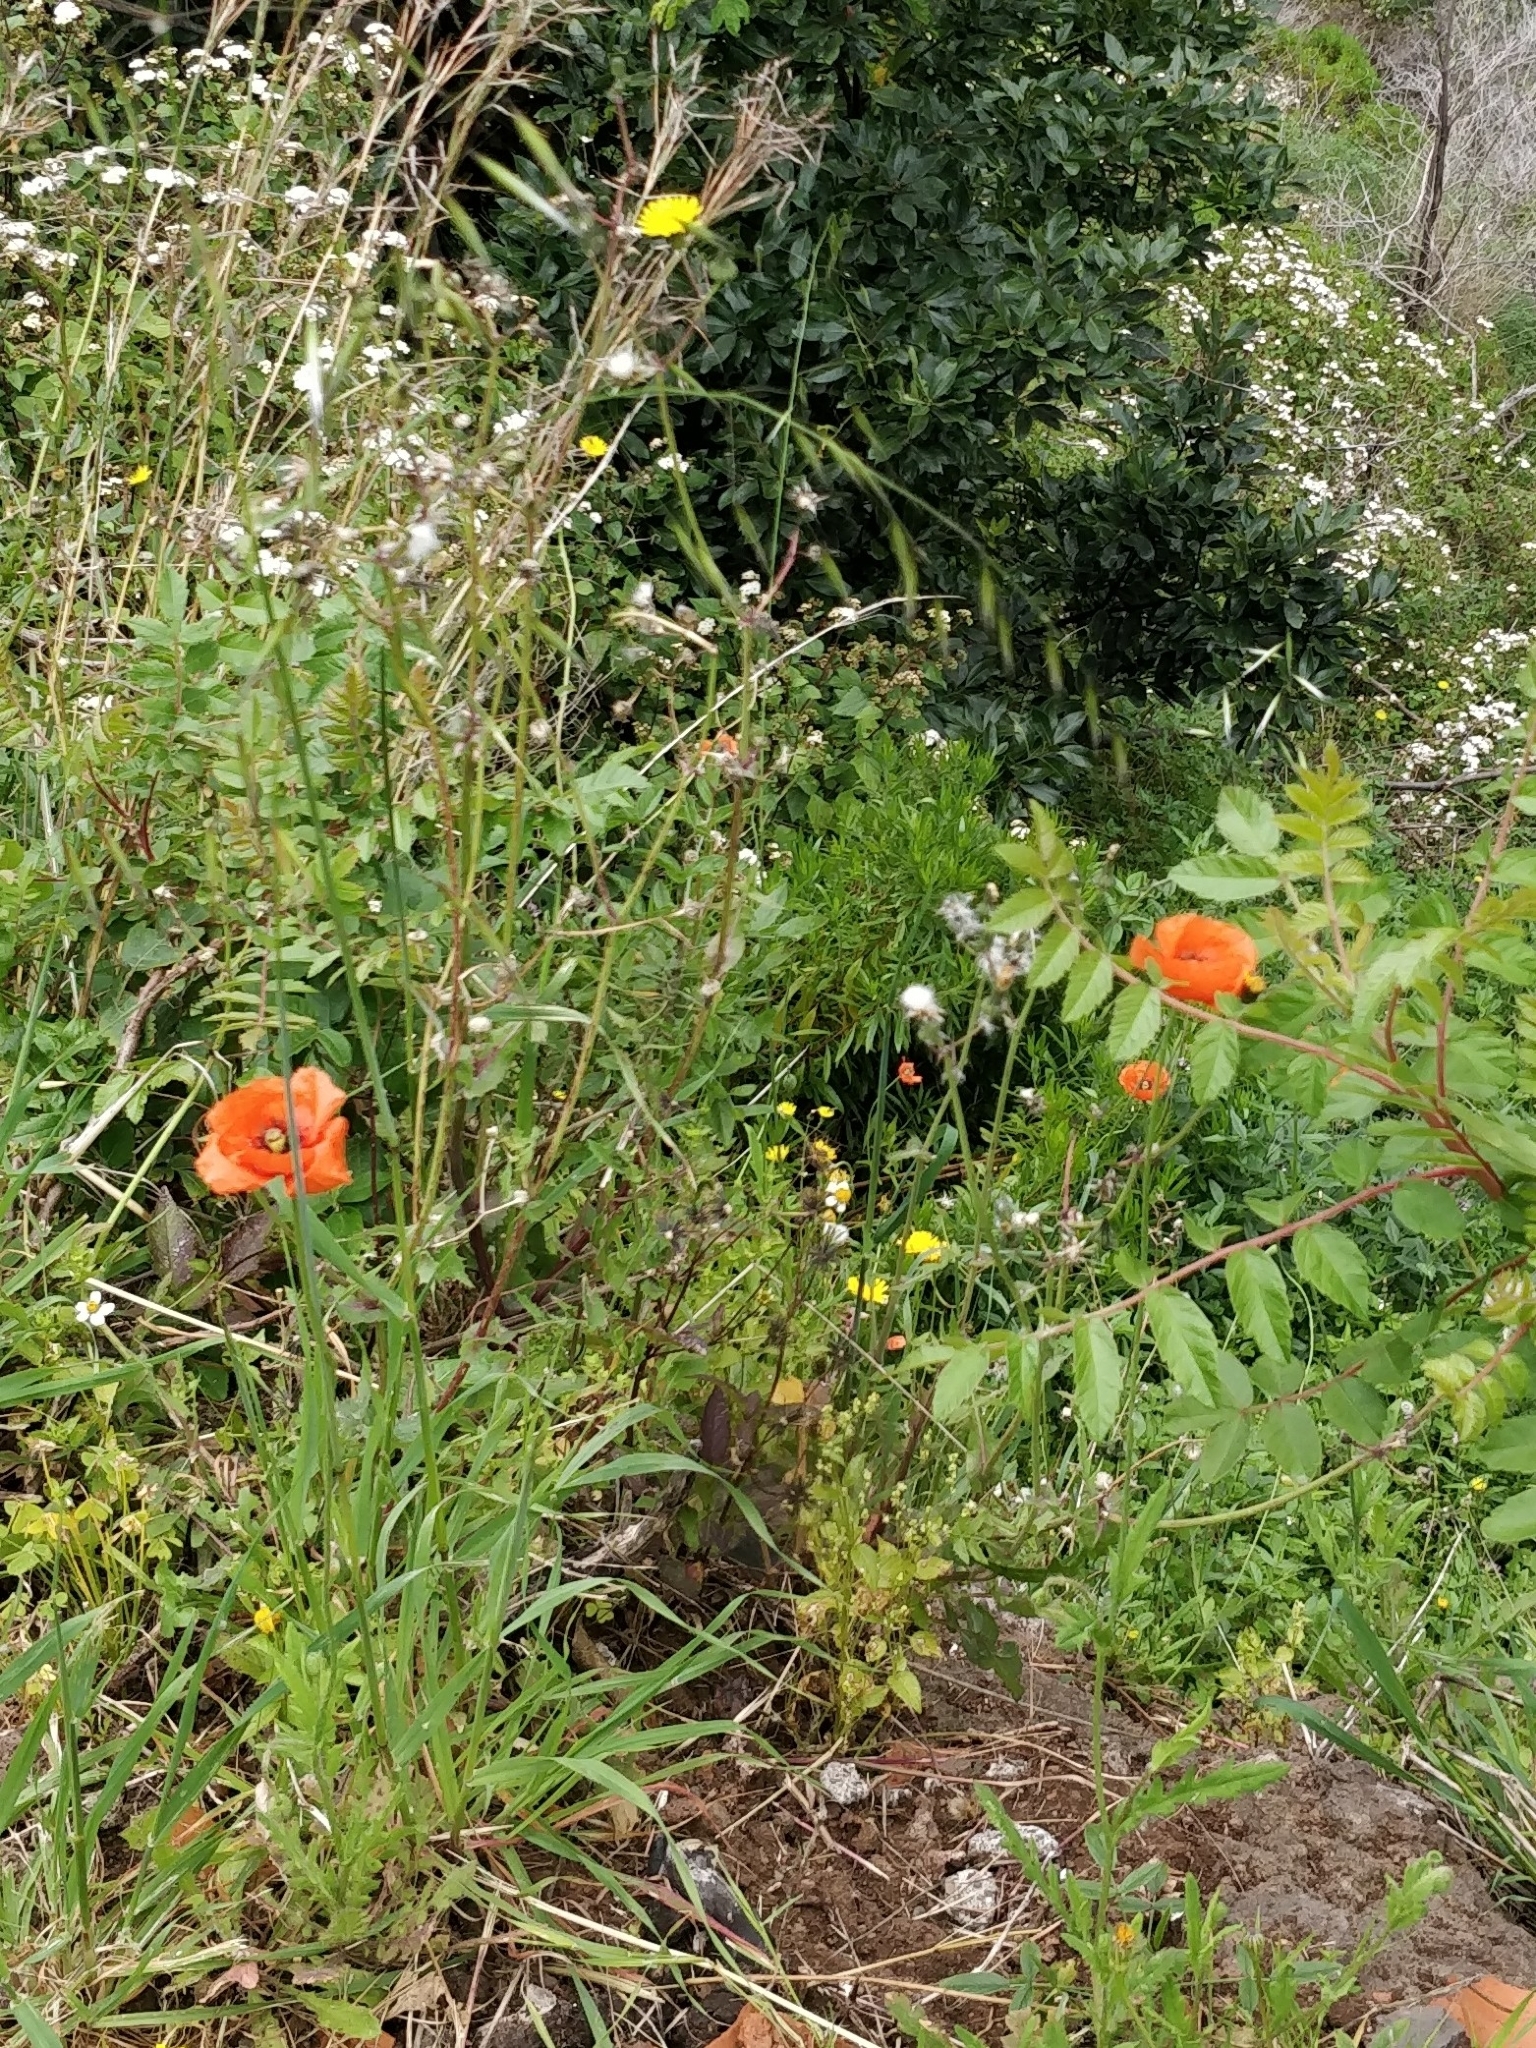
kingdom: Plantae
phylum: Tracheophyta
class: Magnoliopsida
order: Ranunculales
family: Papaveraceae
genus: Papaver
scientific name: Papaver pinnatifidum
